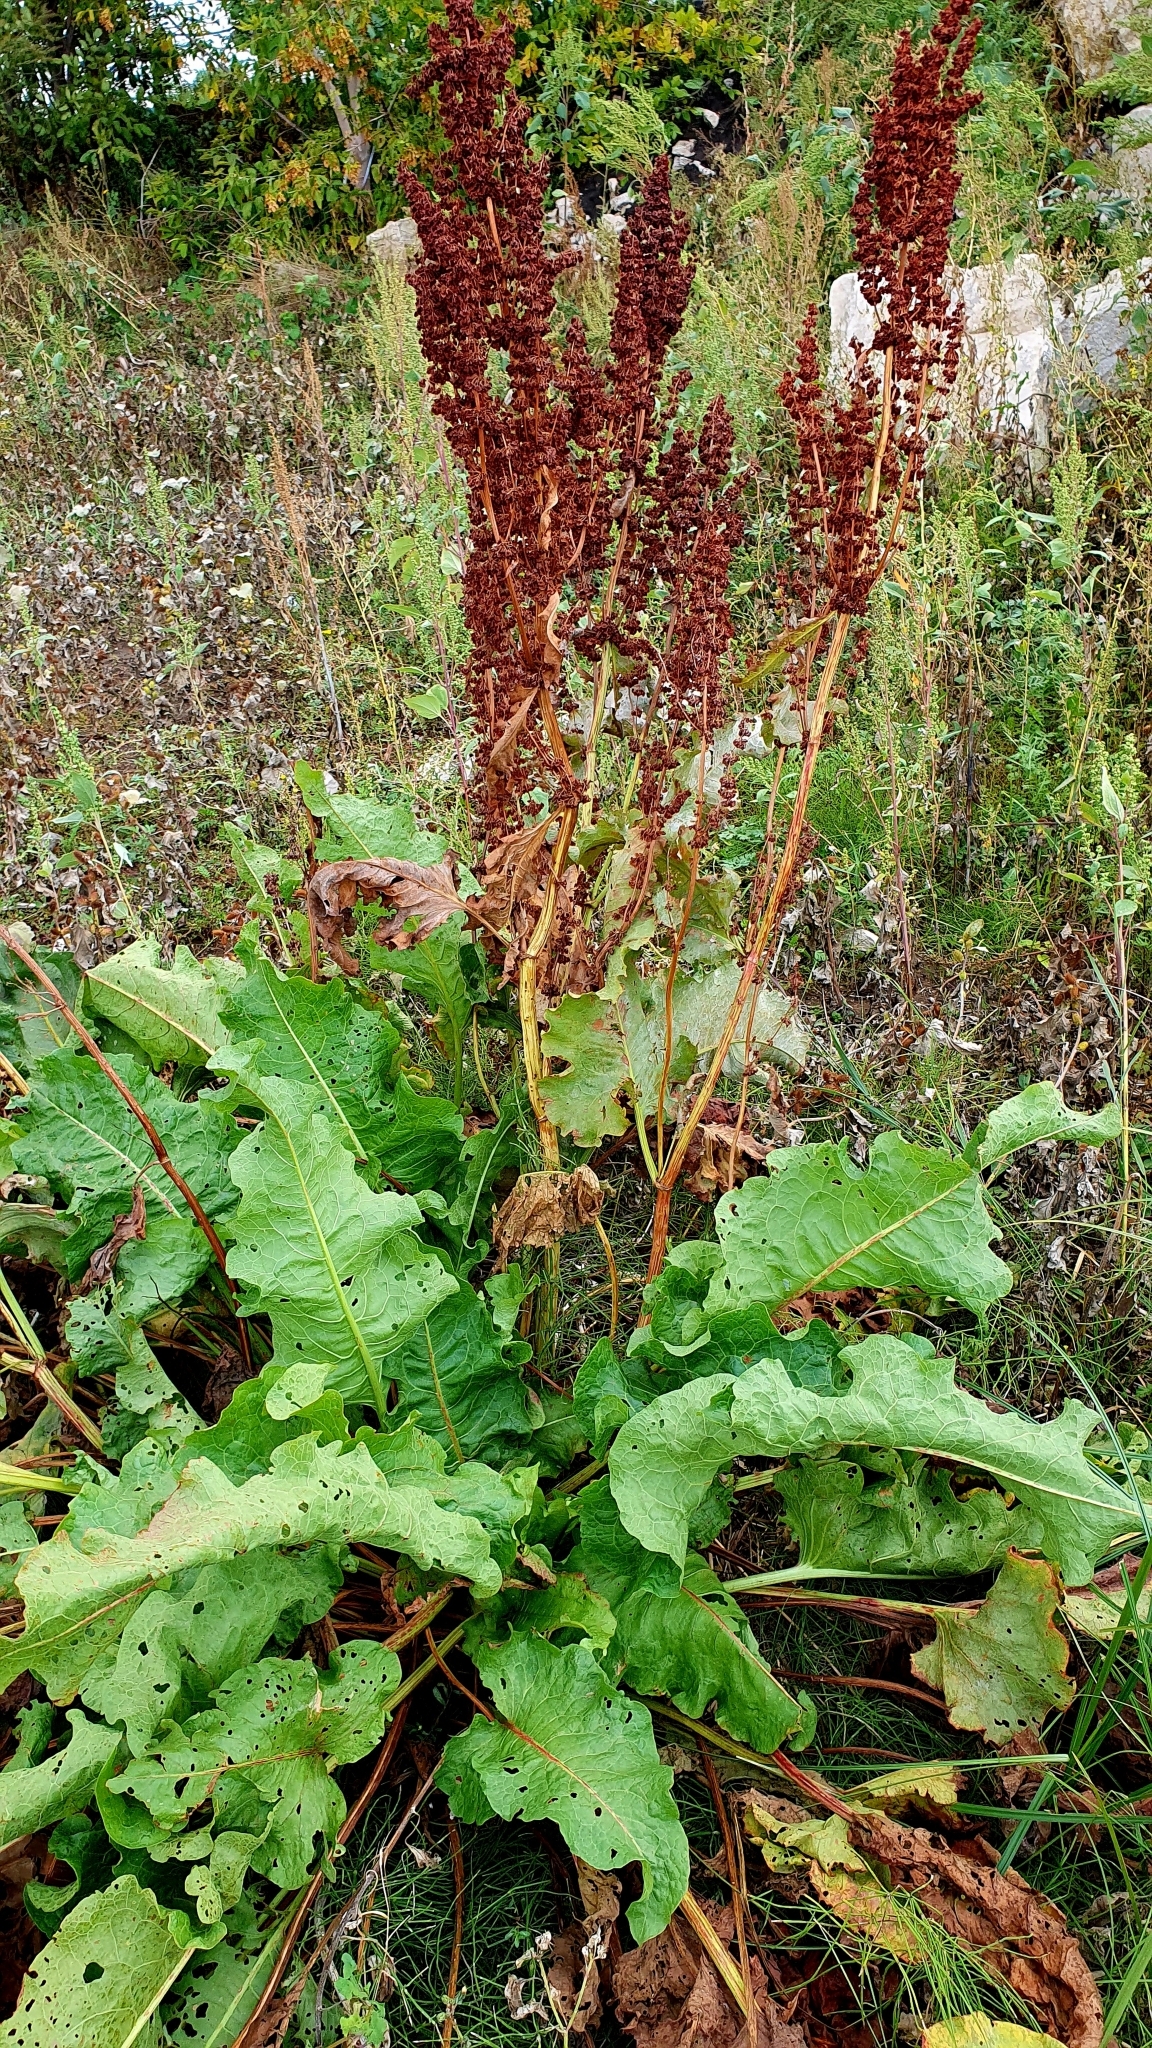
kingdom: Plantae
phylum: Tracheophyta
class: Magnoliopsida
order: Caryophyllales
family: Polygonaceae
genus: Rumex
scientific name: Rumex confertus
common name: Russian dock
